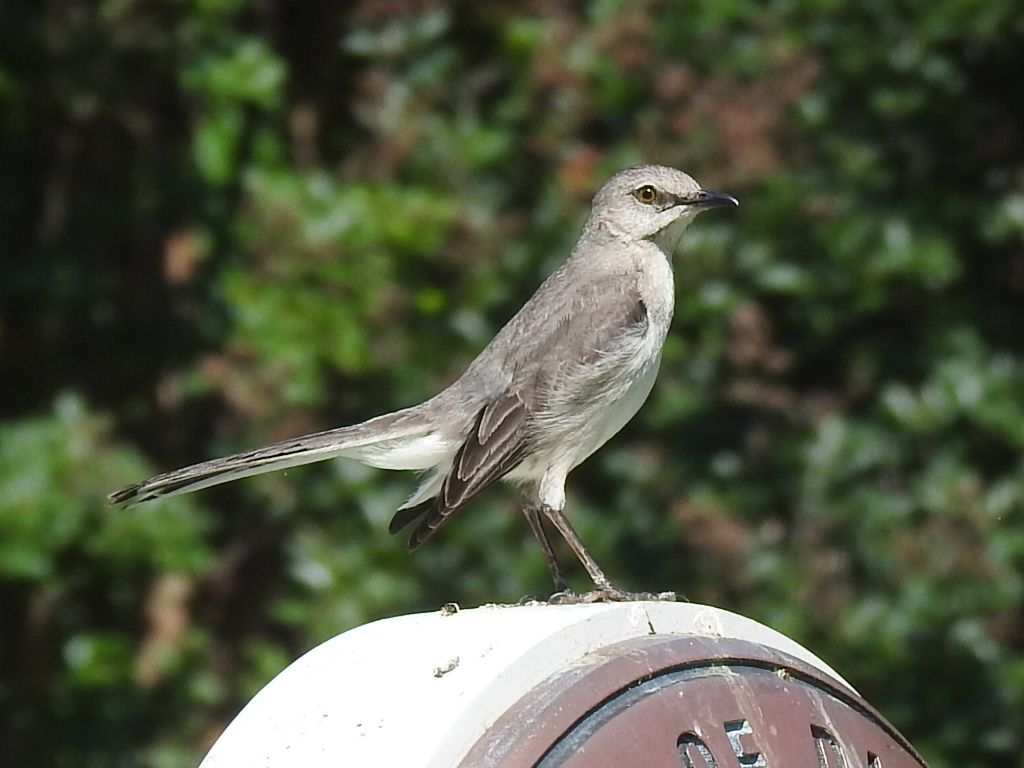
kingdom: Animalia
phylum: Chordata
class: Aves
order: Passeriformes
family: Mimidae
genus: Mimus
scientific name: Mimus polyglottos
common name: Northern mockingbird
